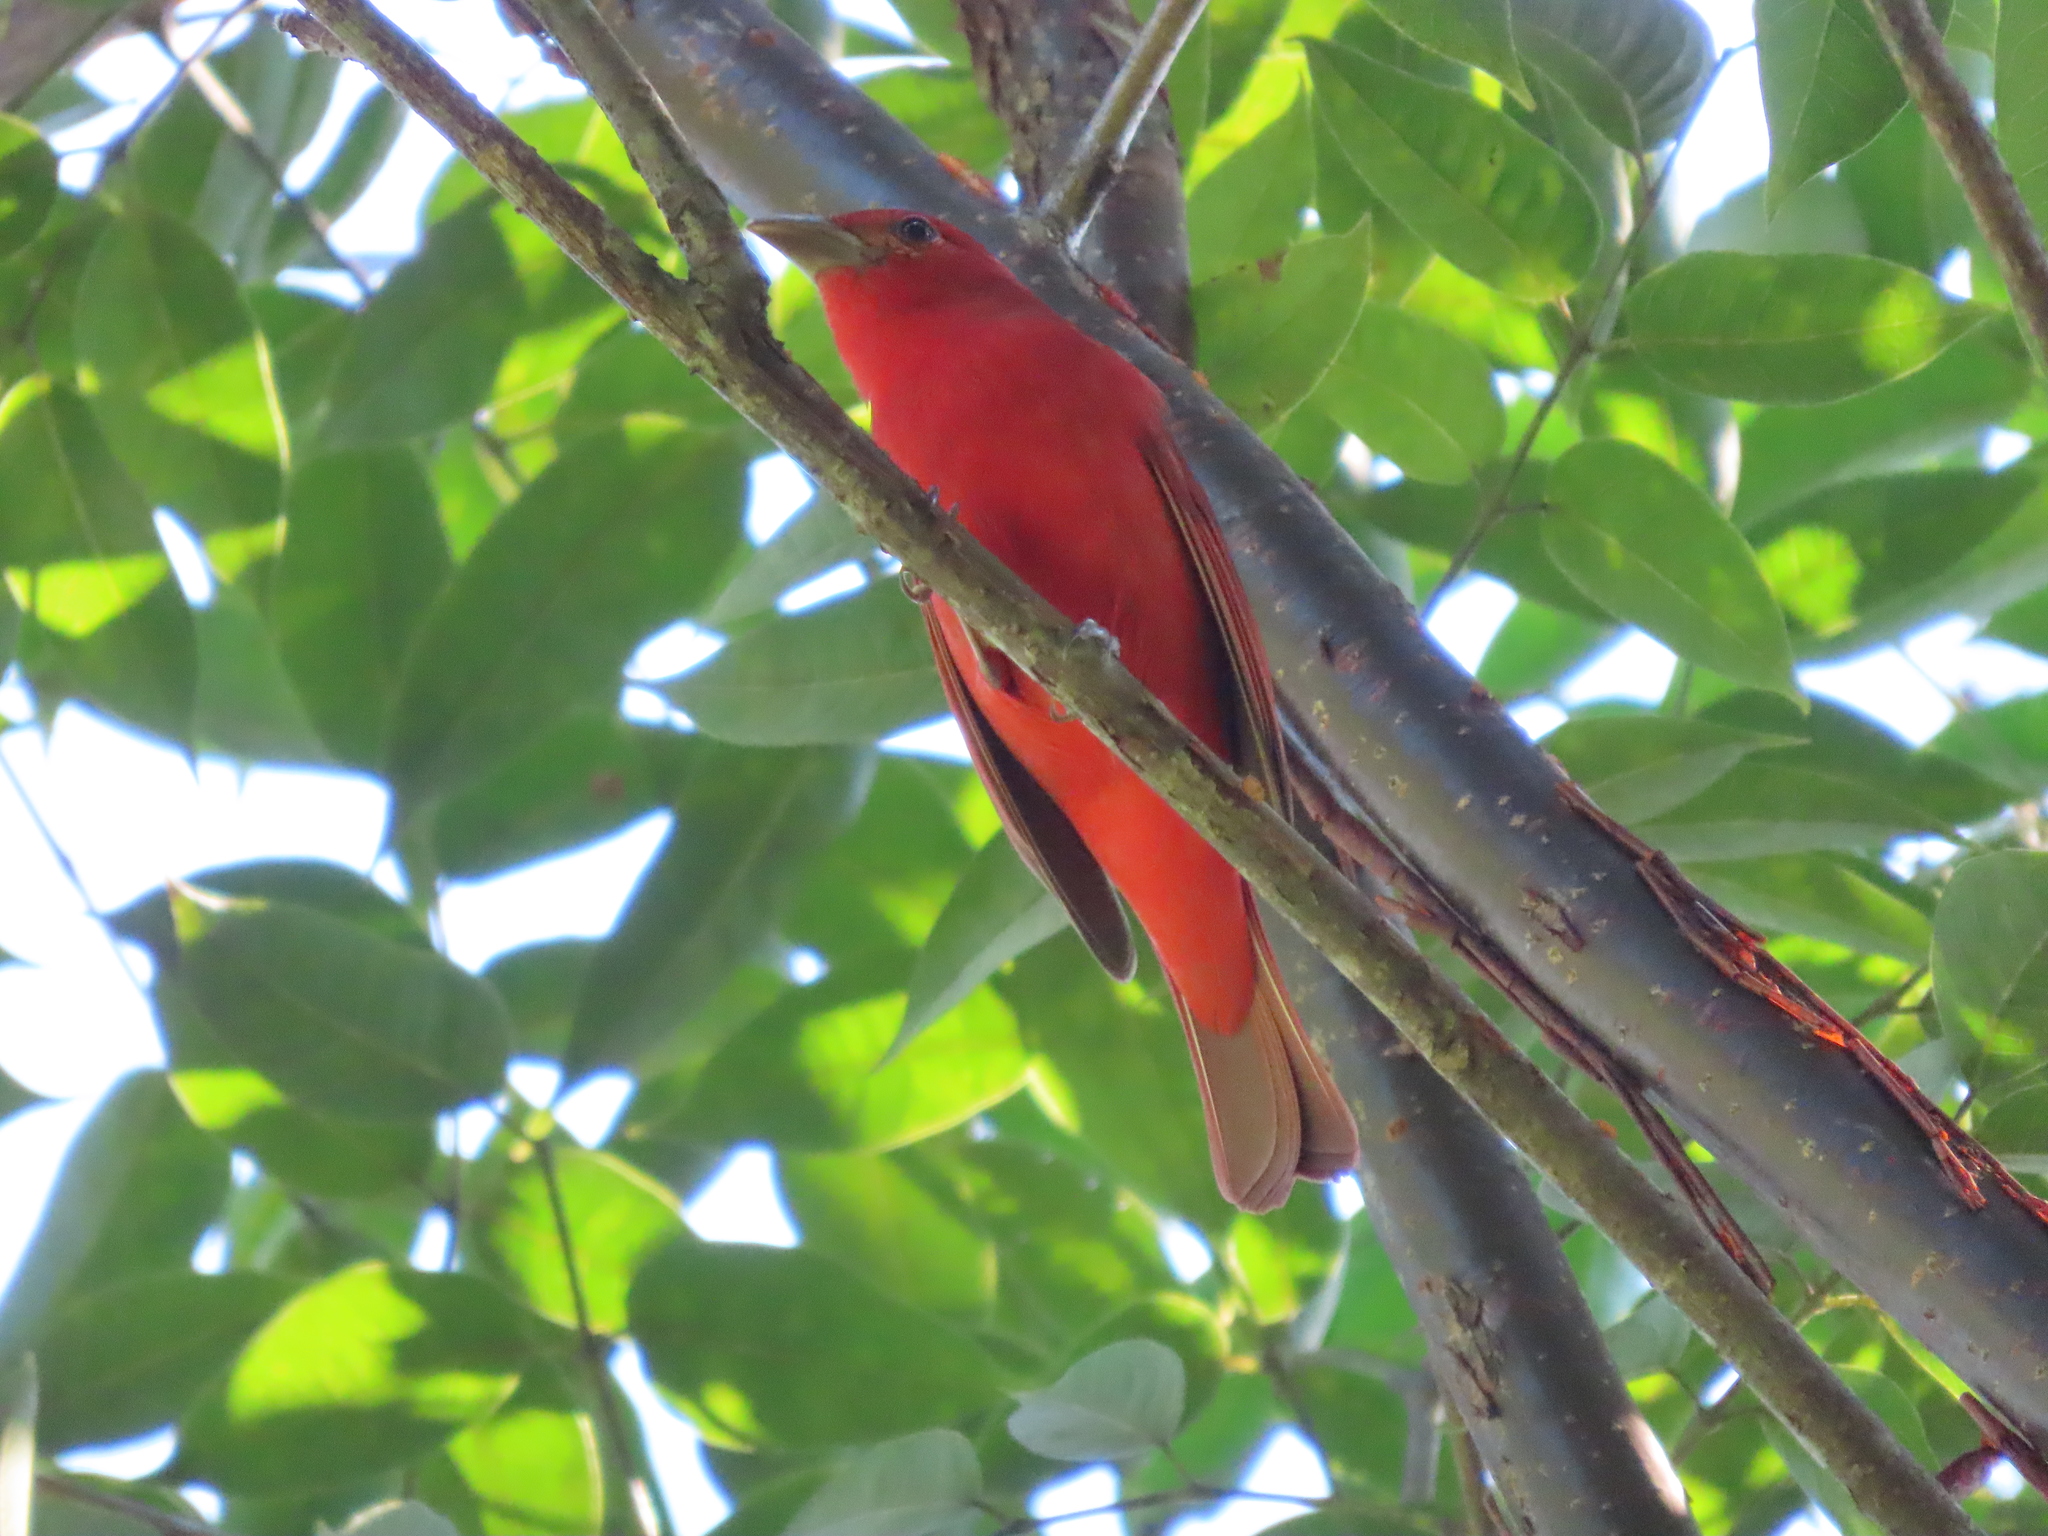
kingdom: Animalia
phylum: Chordata
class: Aves
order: Passeriformes
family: Cardinalidae
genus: Piranga
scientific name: Piranga rubra
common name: Summer tanager
